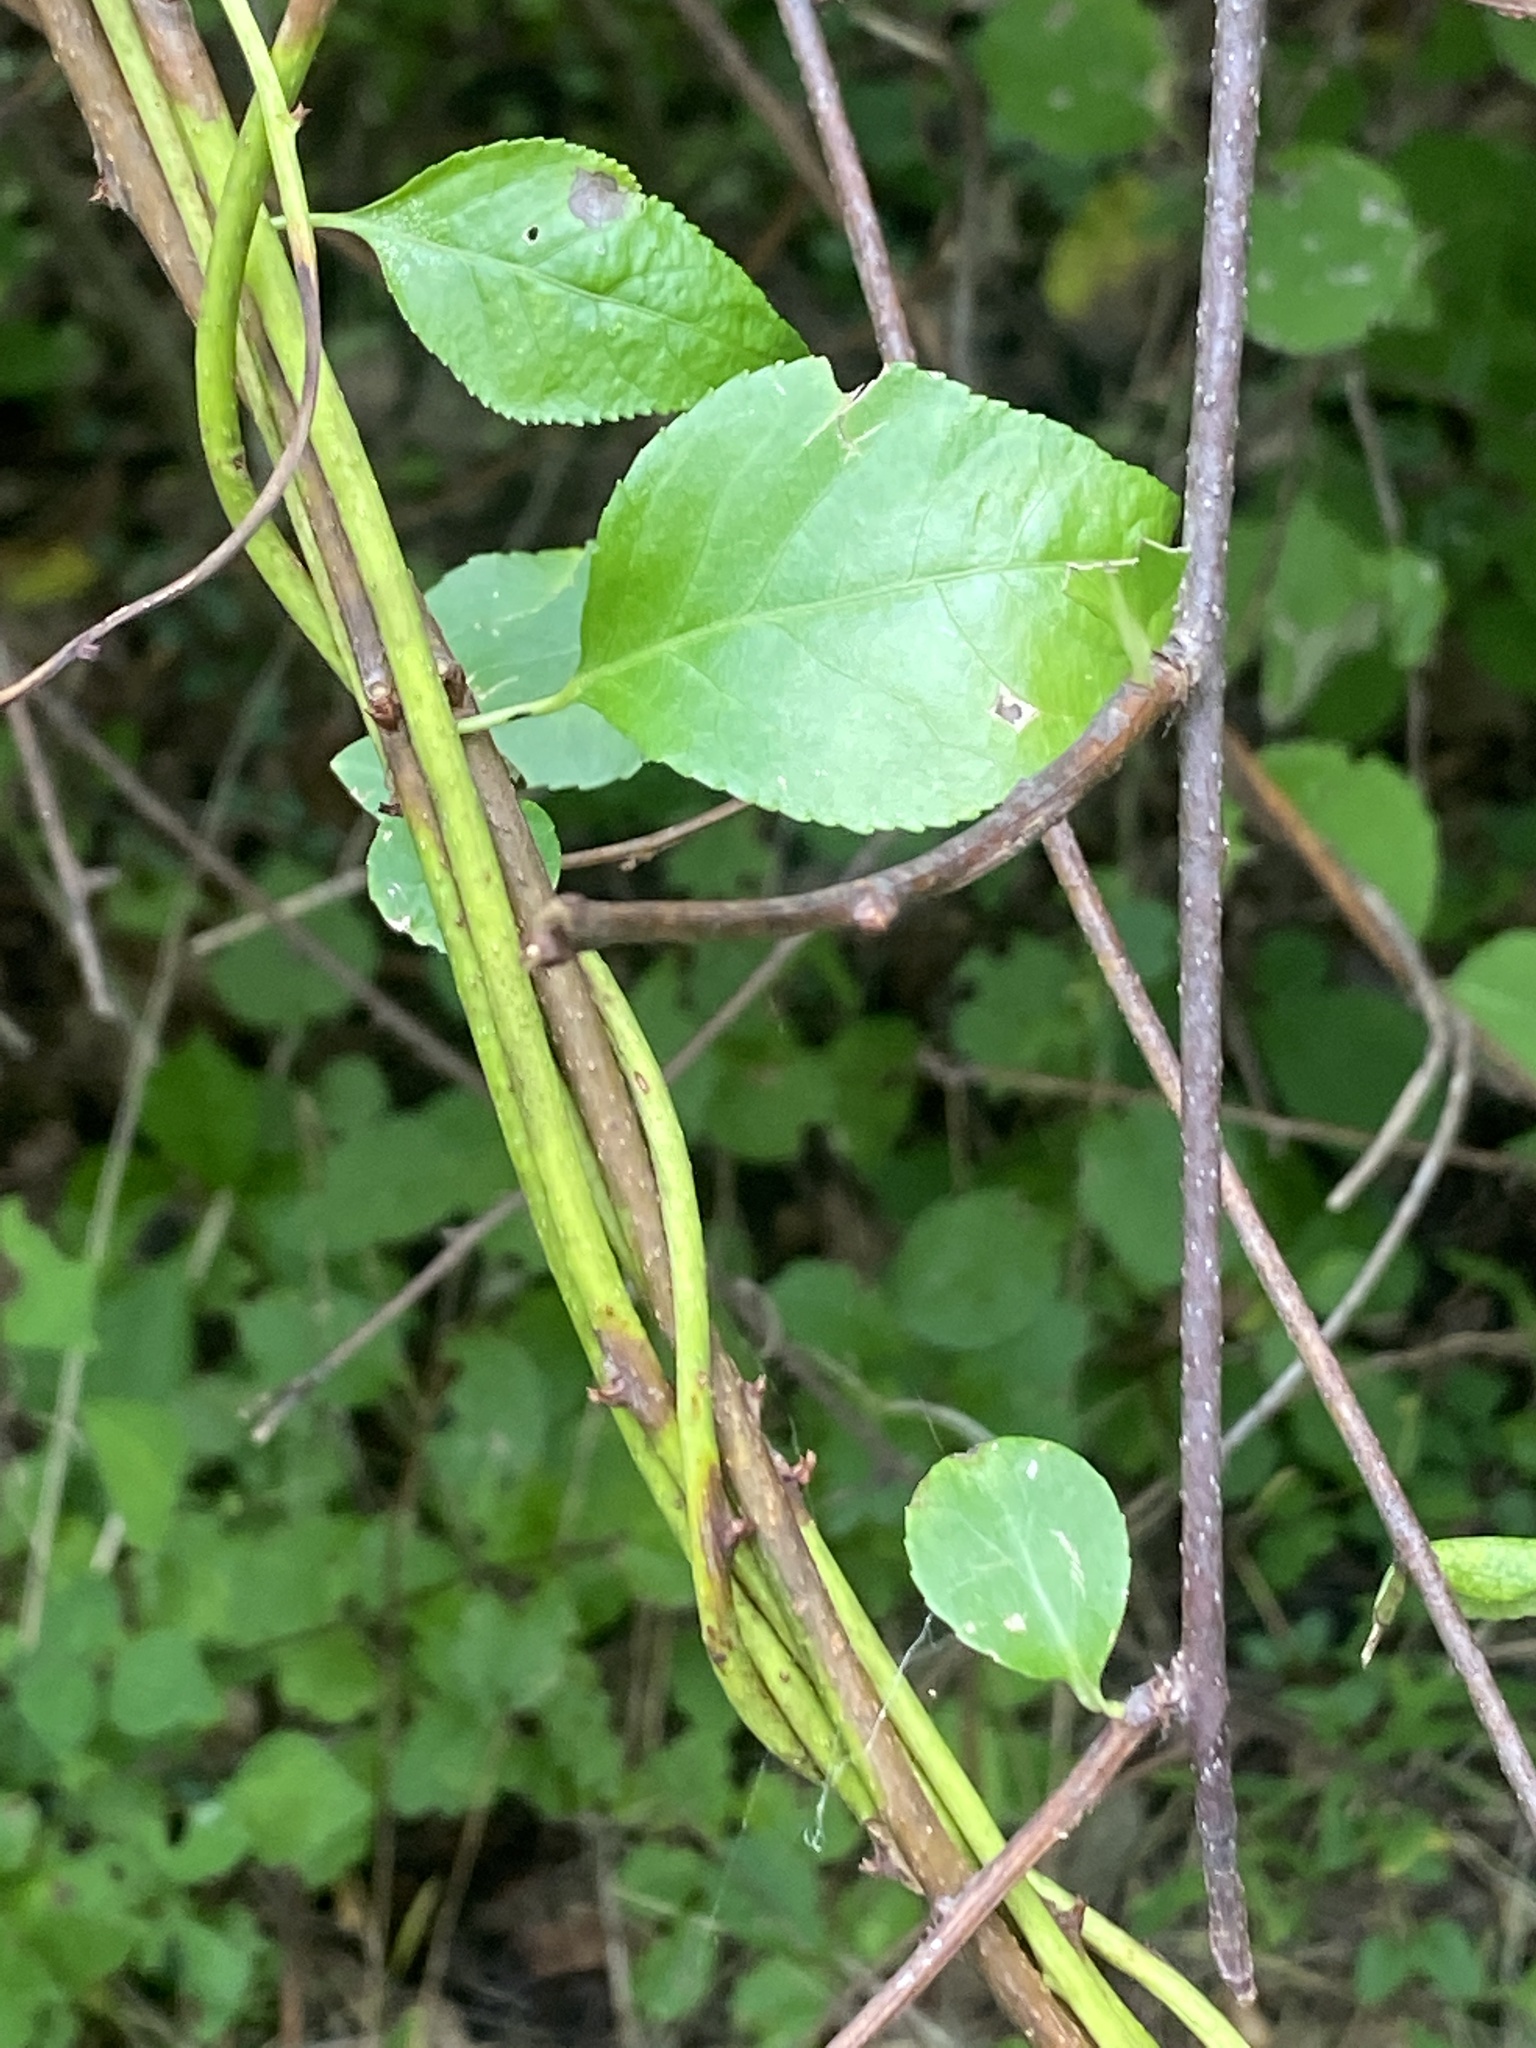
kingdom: Plantae
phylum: Tracheophyta
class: Magnoliopsida
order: Celastrales
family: Celastraceae
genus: Celastrus
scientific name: Celastrus orbiculatus
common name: Oriental bittersweet
